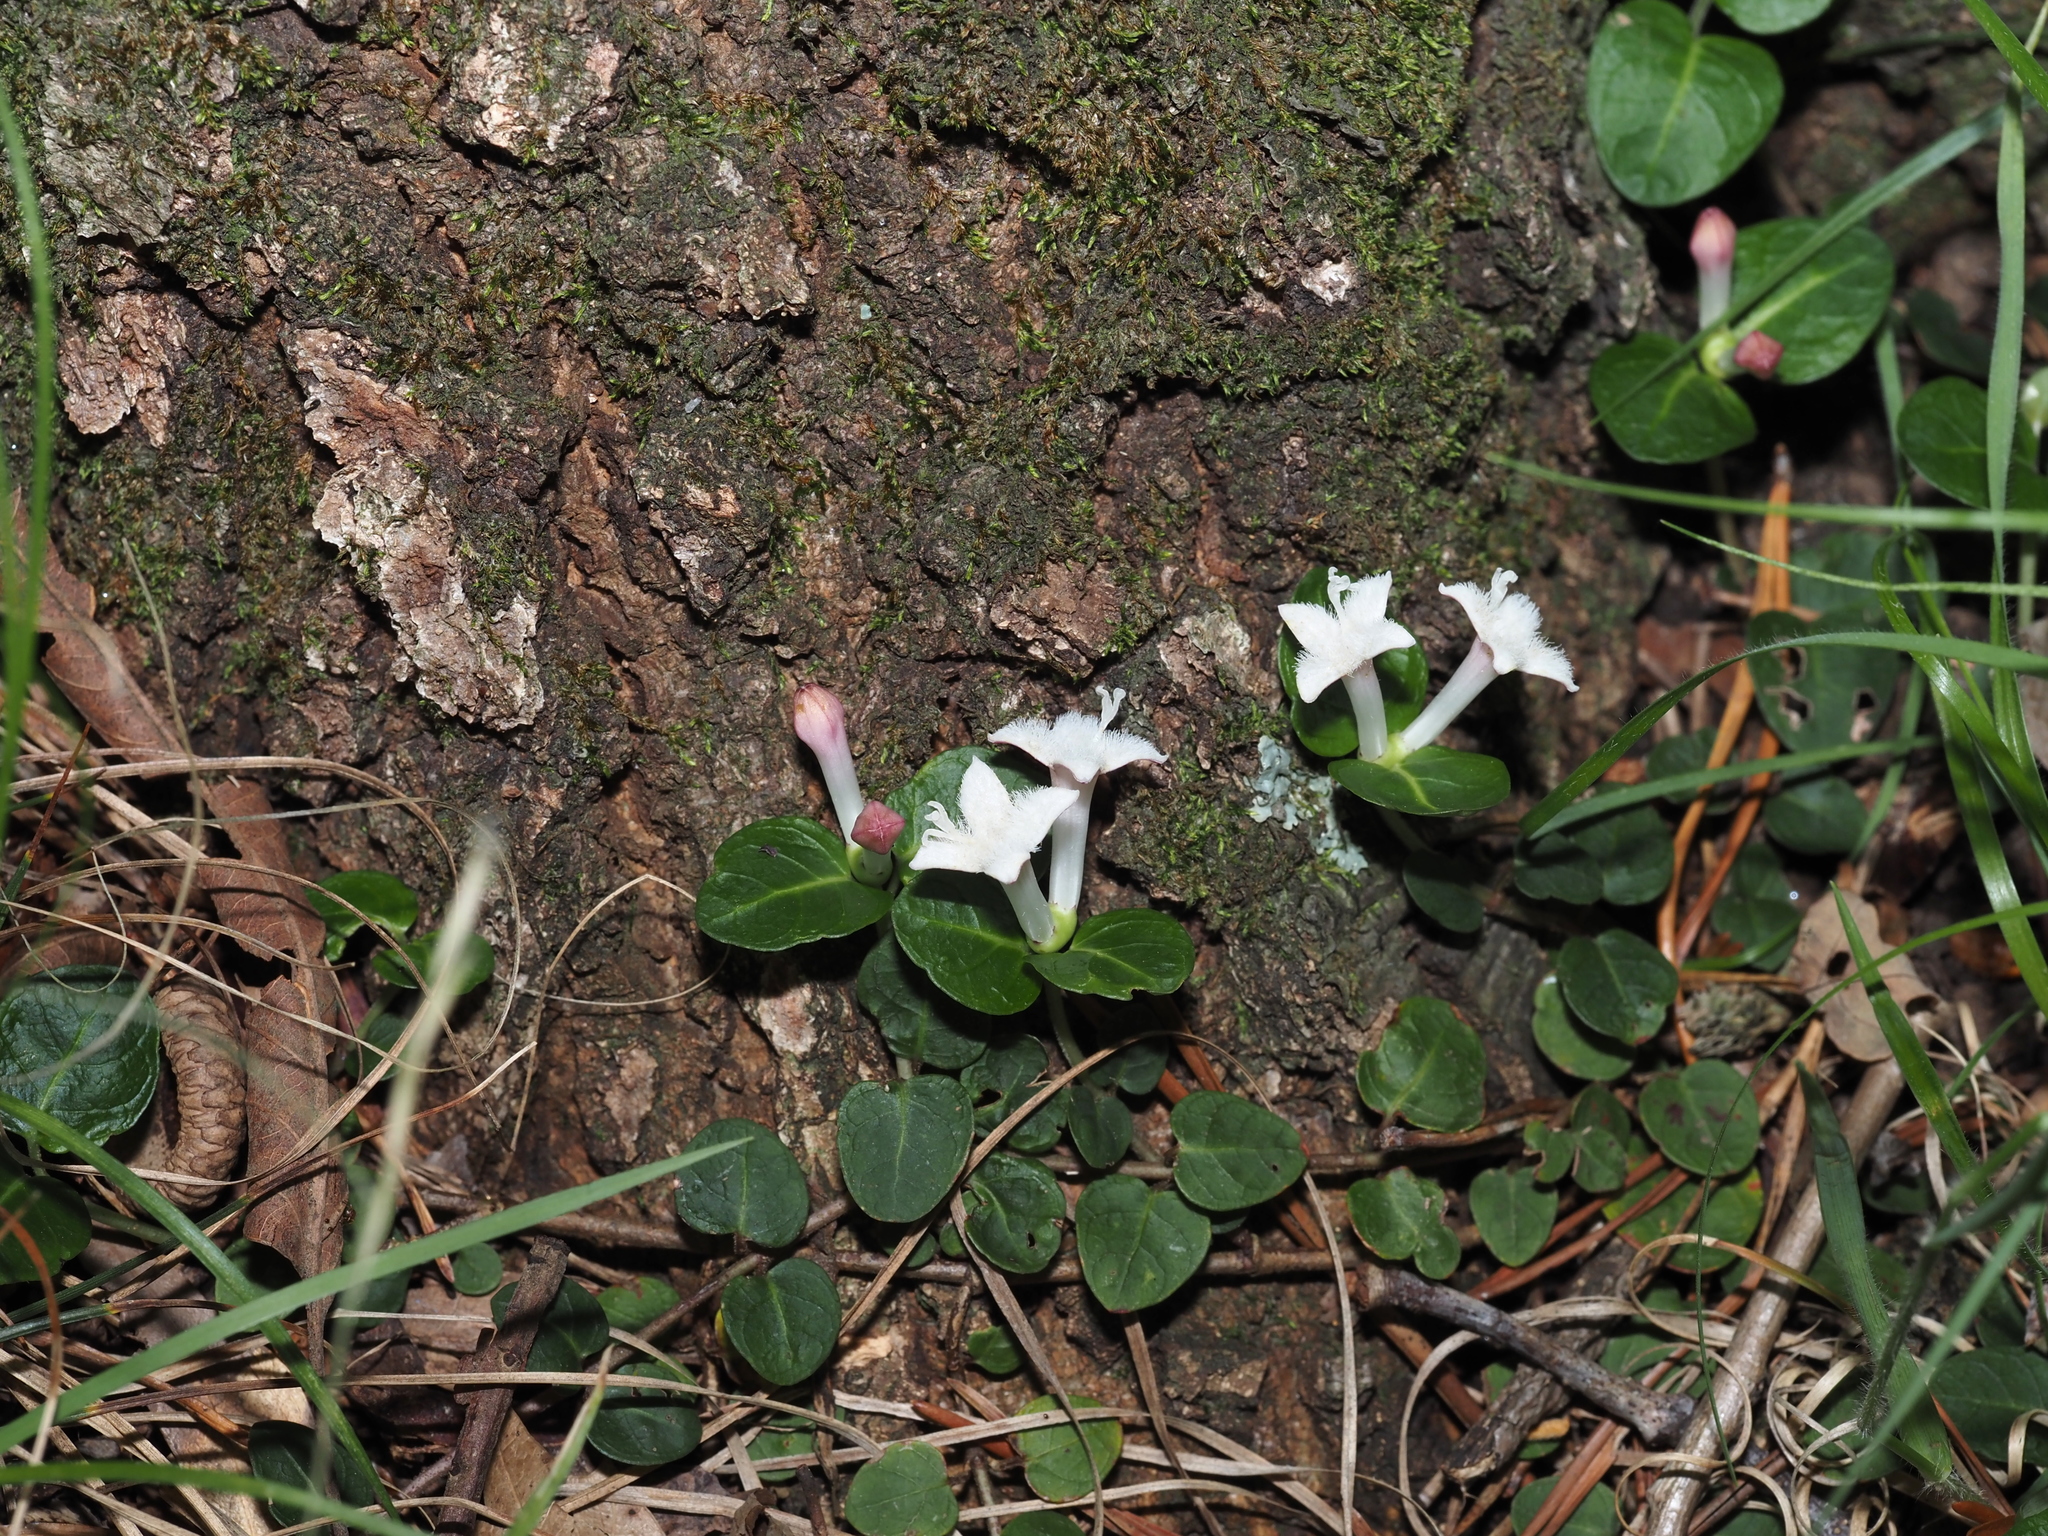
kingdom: Plantae
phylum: Tracheophyta
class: Magnoliopsida
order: Gentianales
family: Rubiaceae
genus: Mitchella
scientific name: Mitchella repens
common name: Partridge-berry
